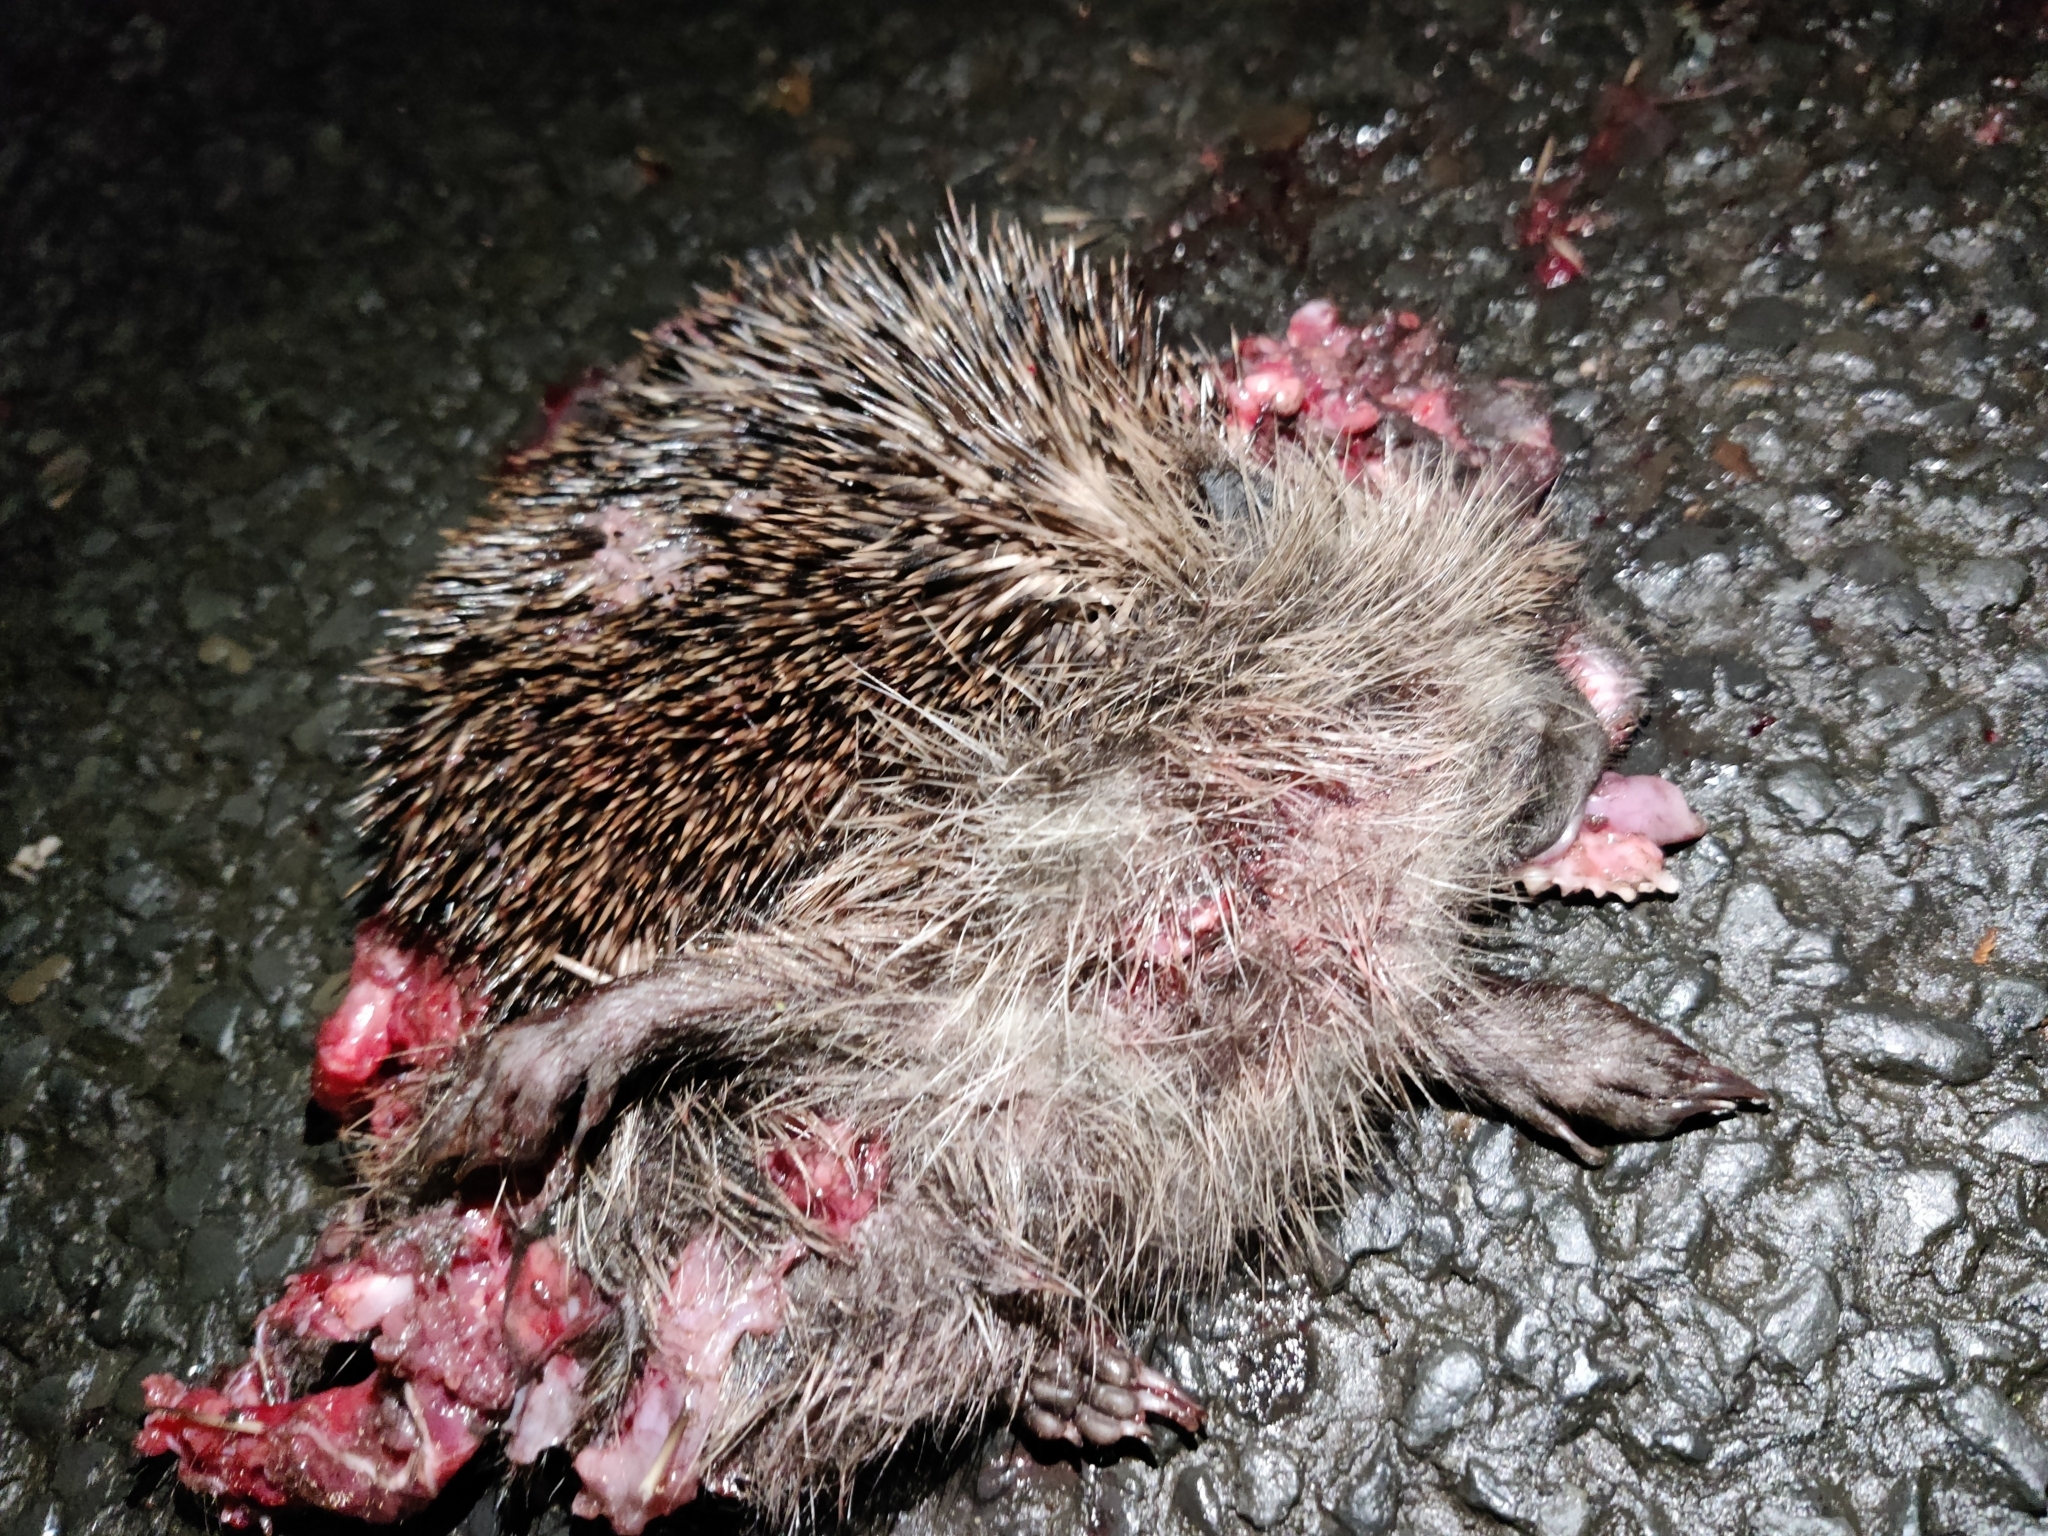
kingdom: Animalia
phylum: Chordata
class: Mammalia
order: Erinaceomorpha
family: Erinaceidae
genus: Erinaceus
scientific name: Erinaceus europaeus
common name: West european hedgehog
